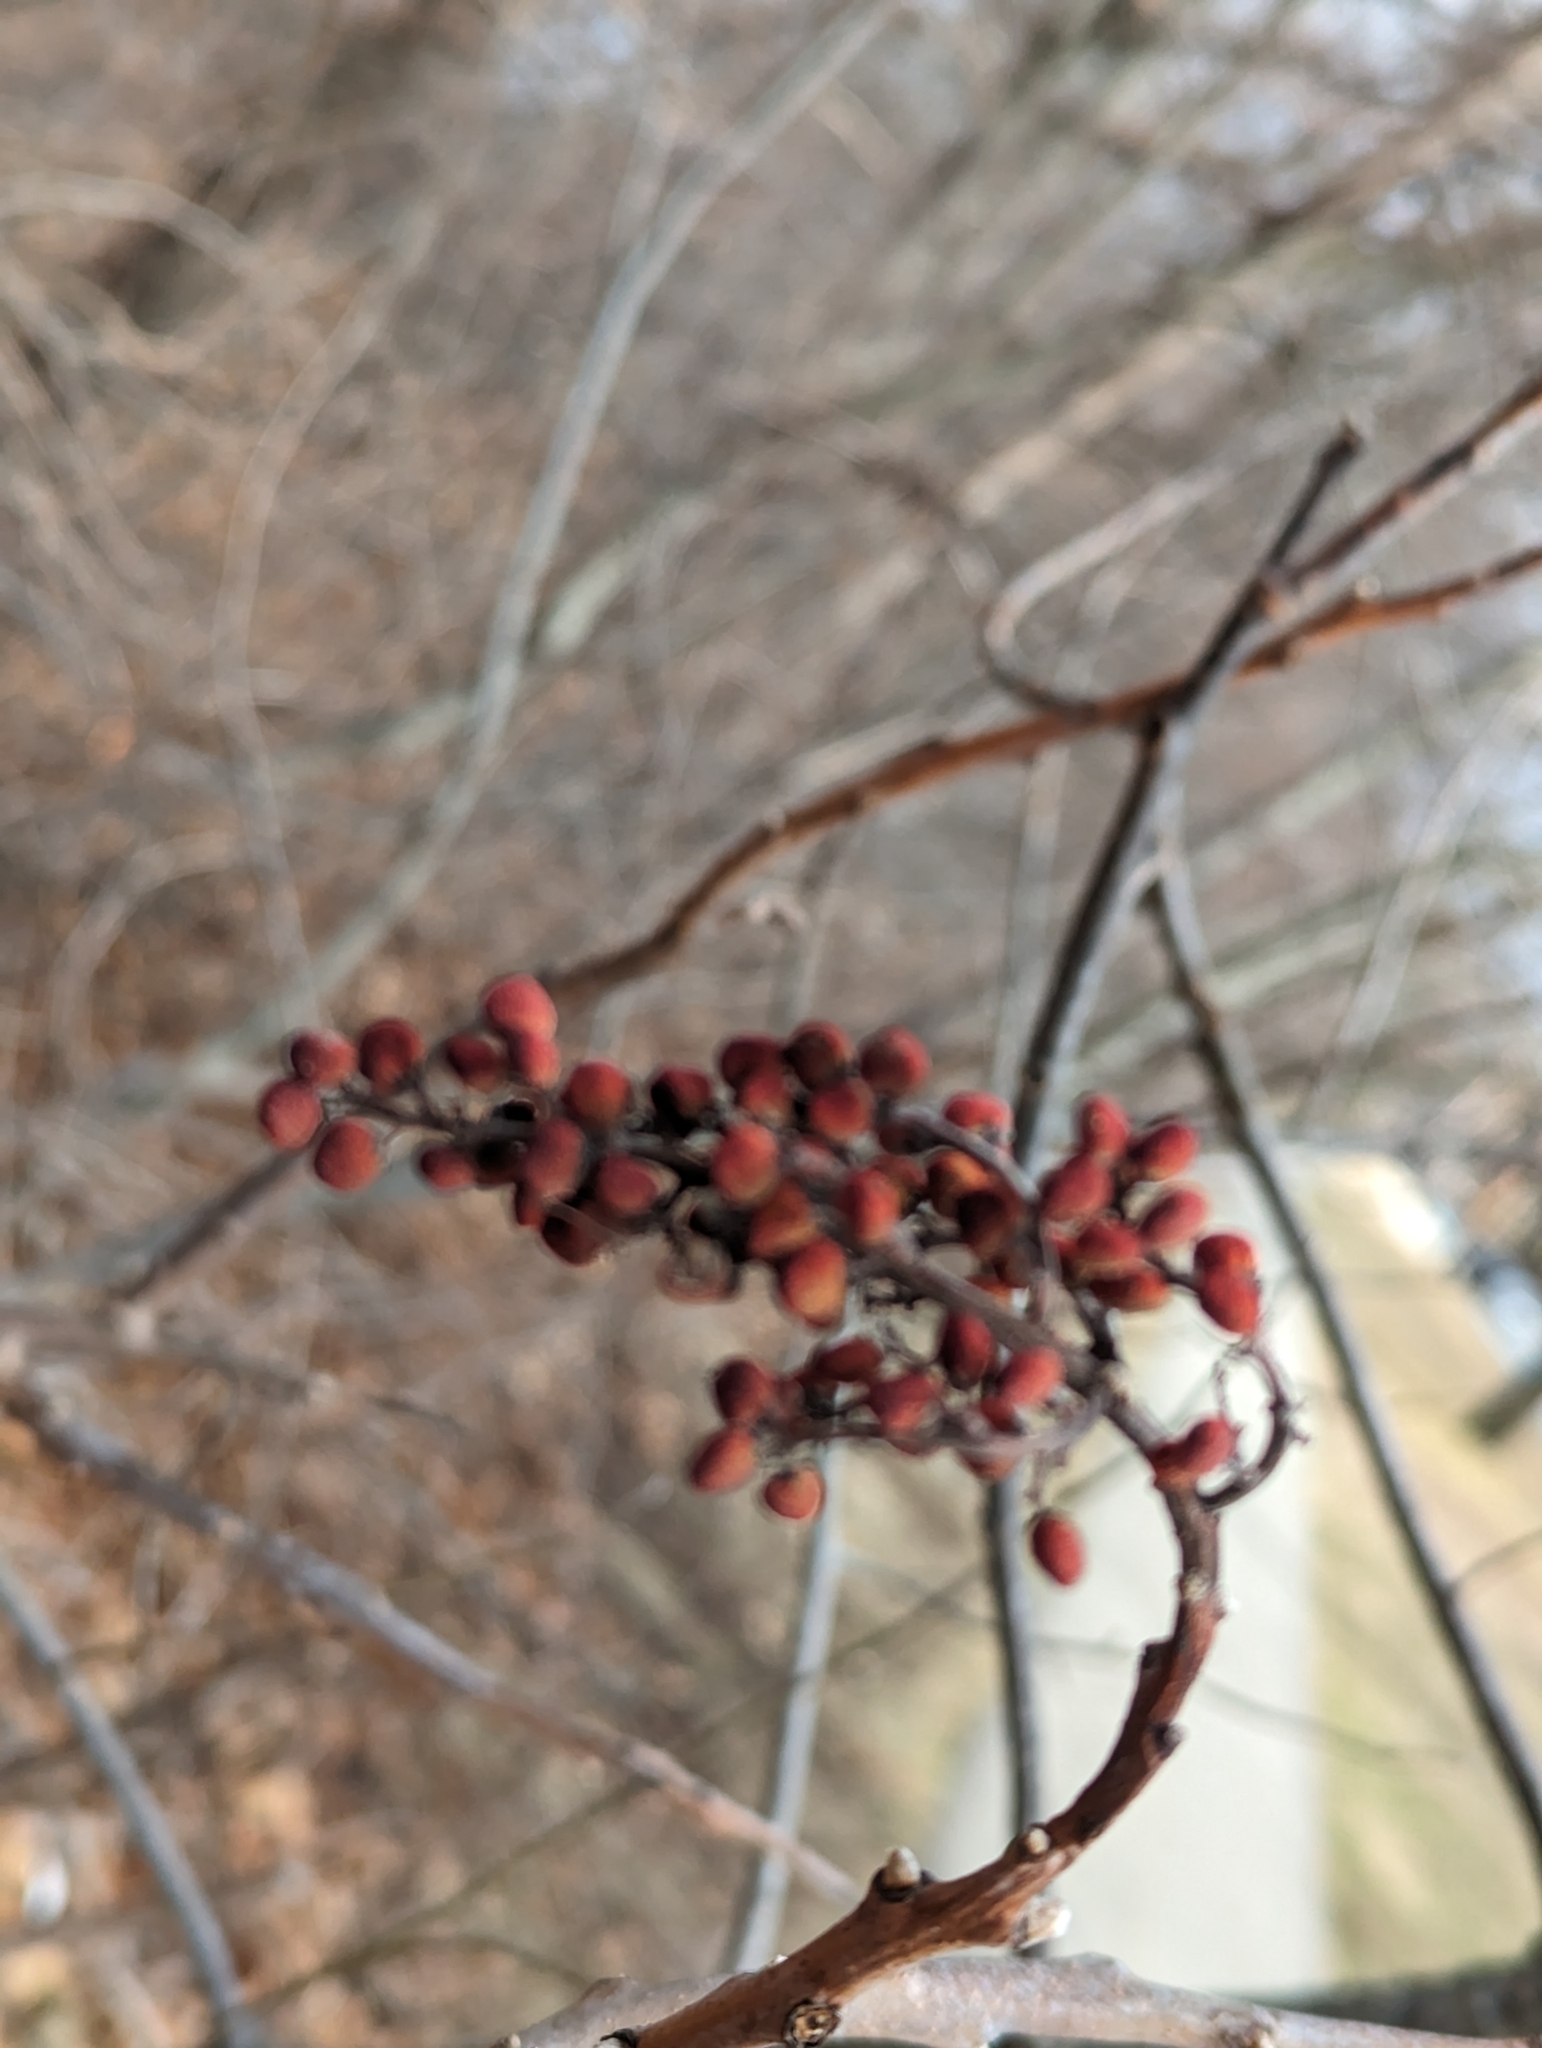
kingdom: Plantae
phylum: Tracheophyta
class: Magnoliopsida
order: Sapindales
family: Anacardiaceae
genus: Rhus
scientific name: Rhus glabra
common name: Scarlet sumac
